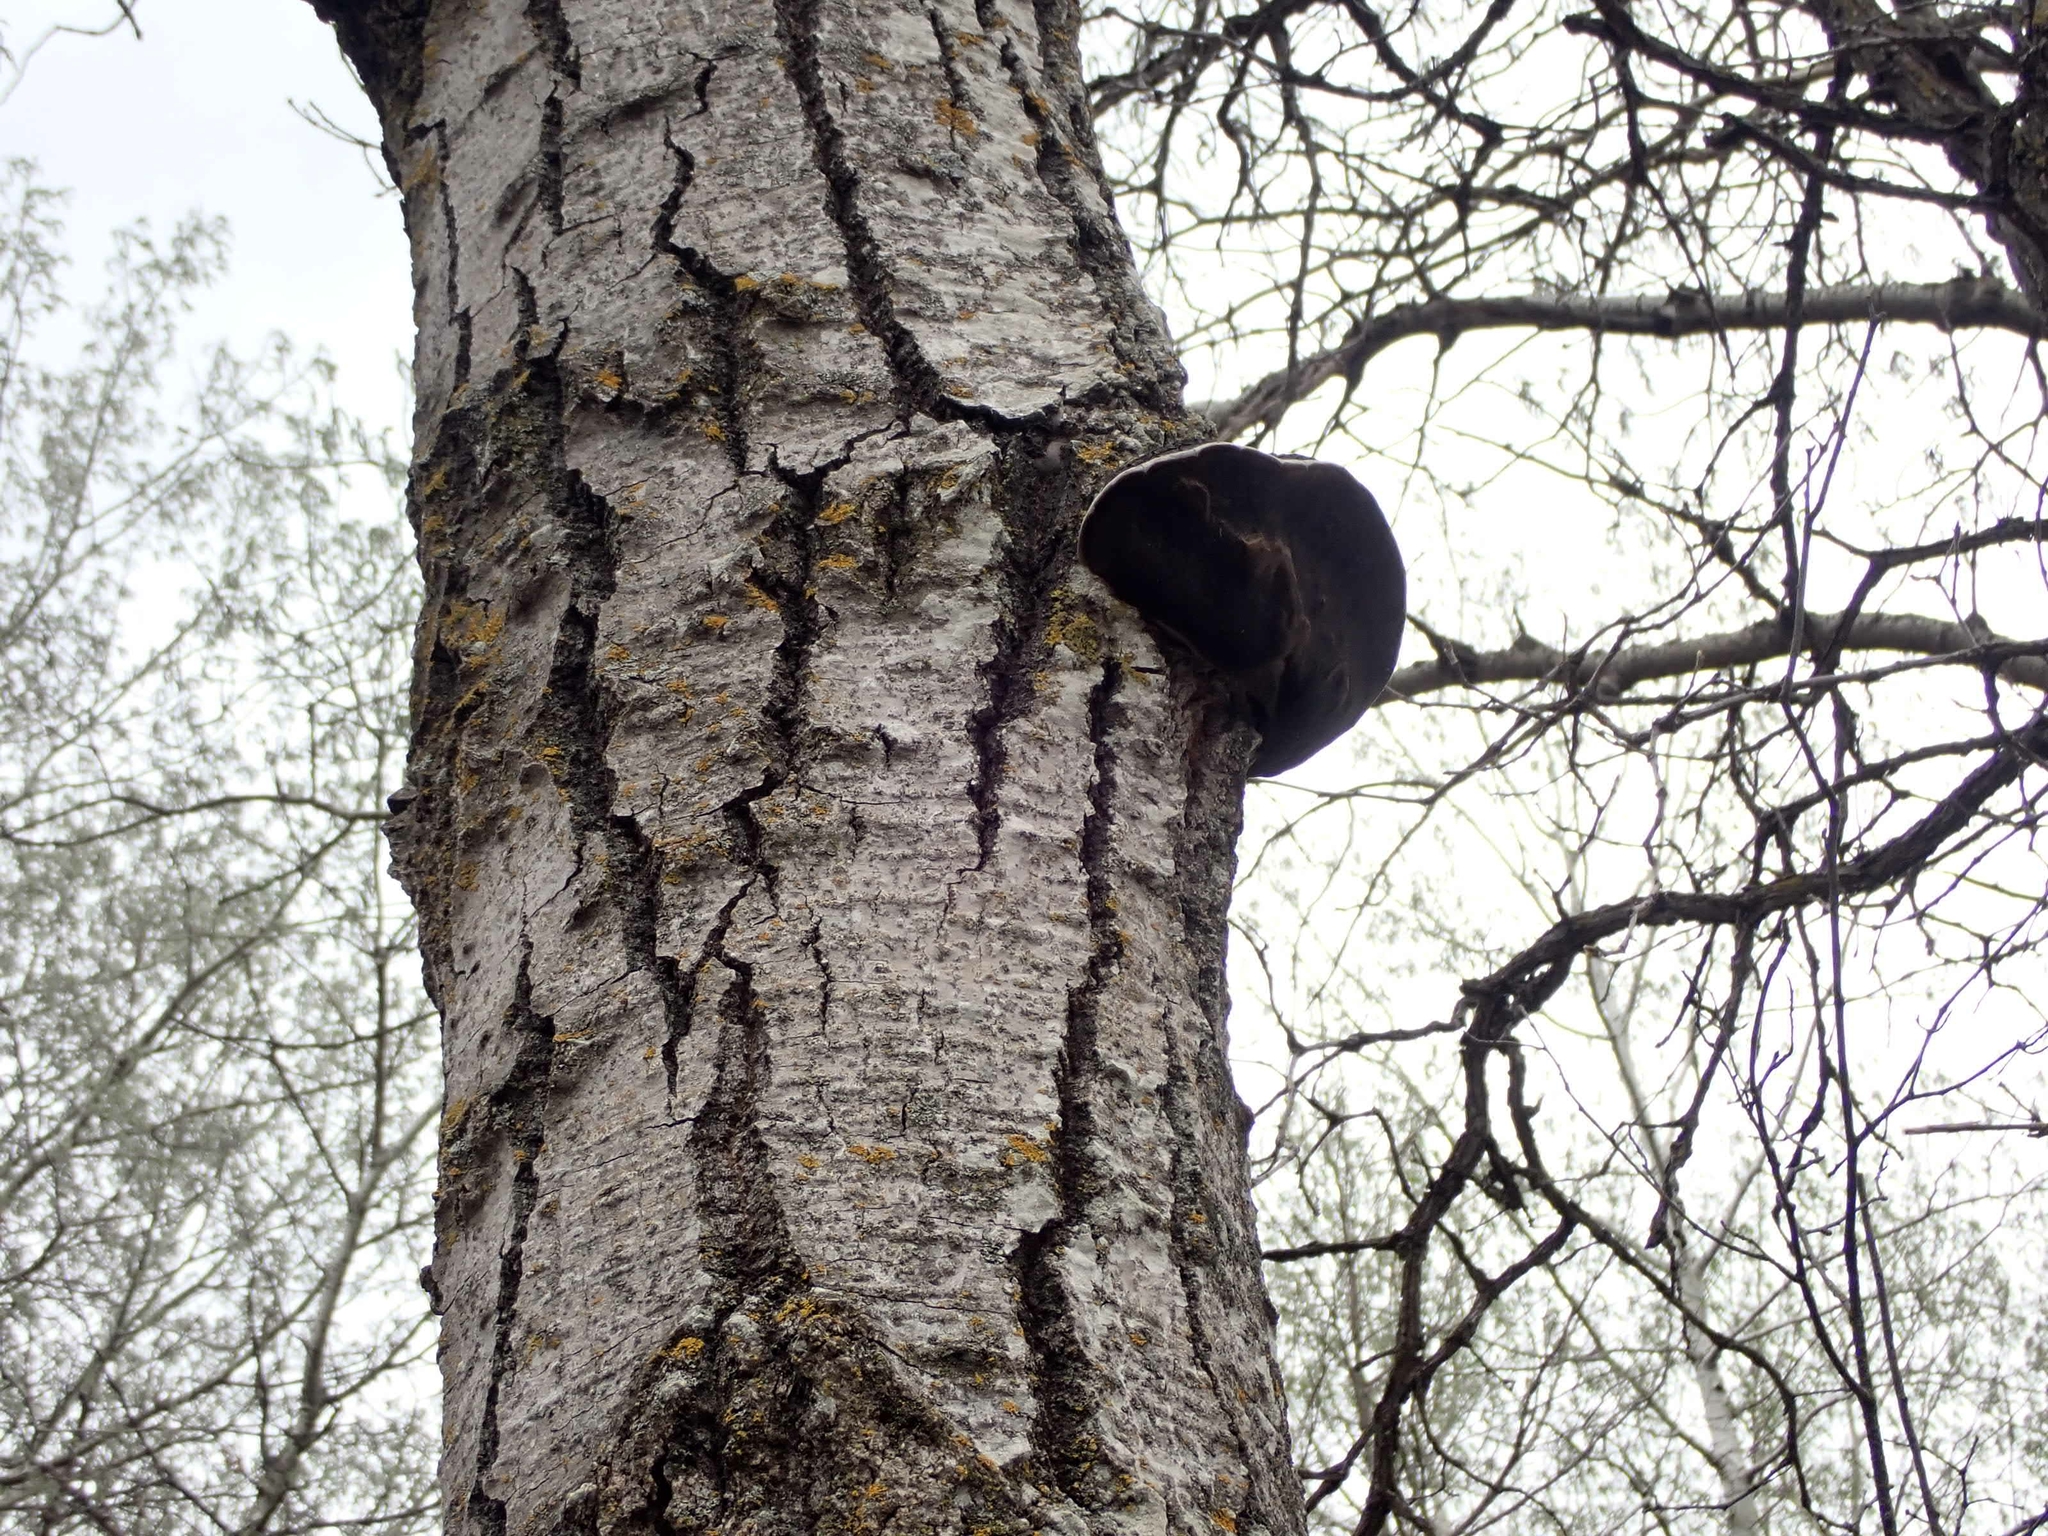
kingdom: Fungi
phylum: Basidiomycota
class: Agaricomycetes
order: Hymenochaetales
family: Hymenochaetaceae
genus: Phellinus
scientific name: Phellinus tremulae
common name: Aspen bracket
